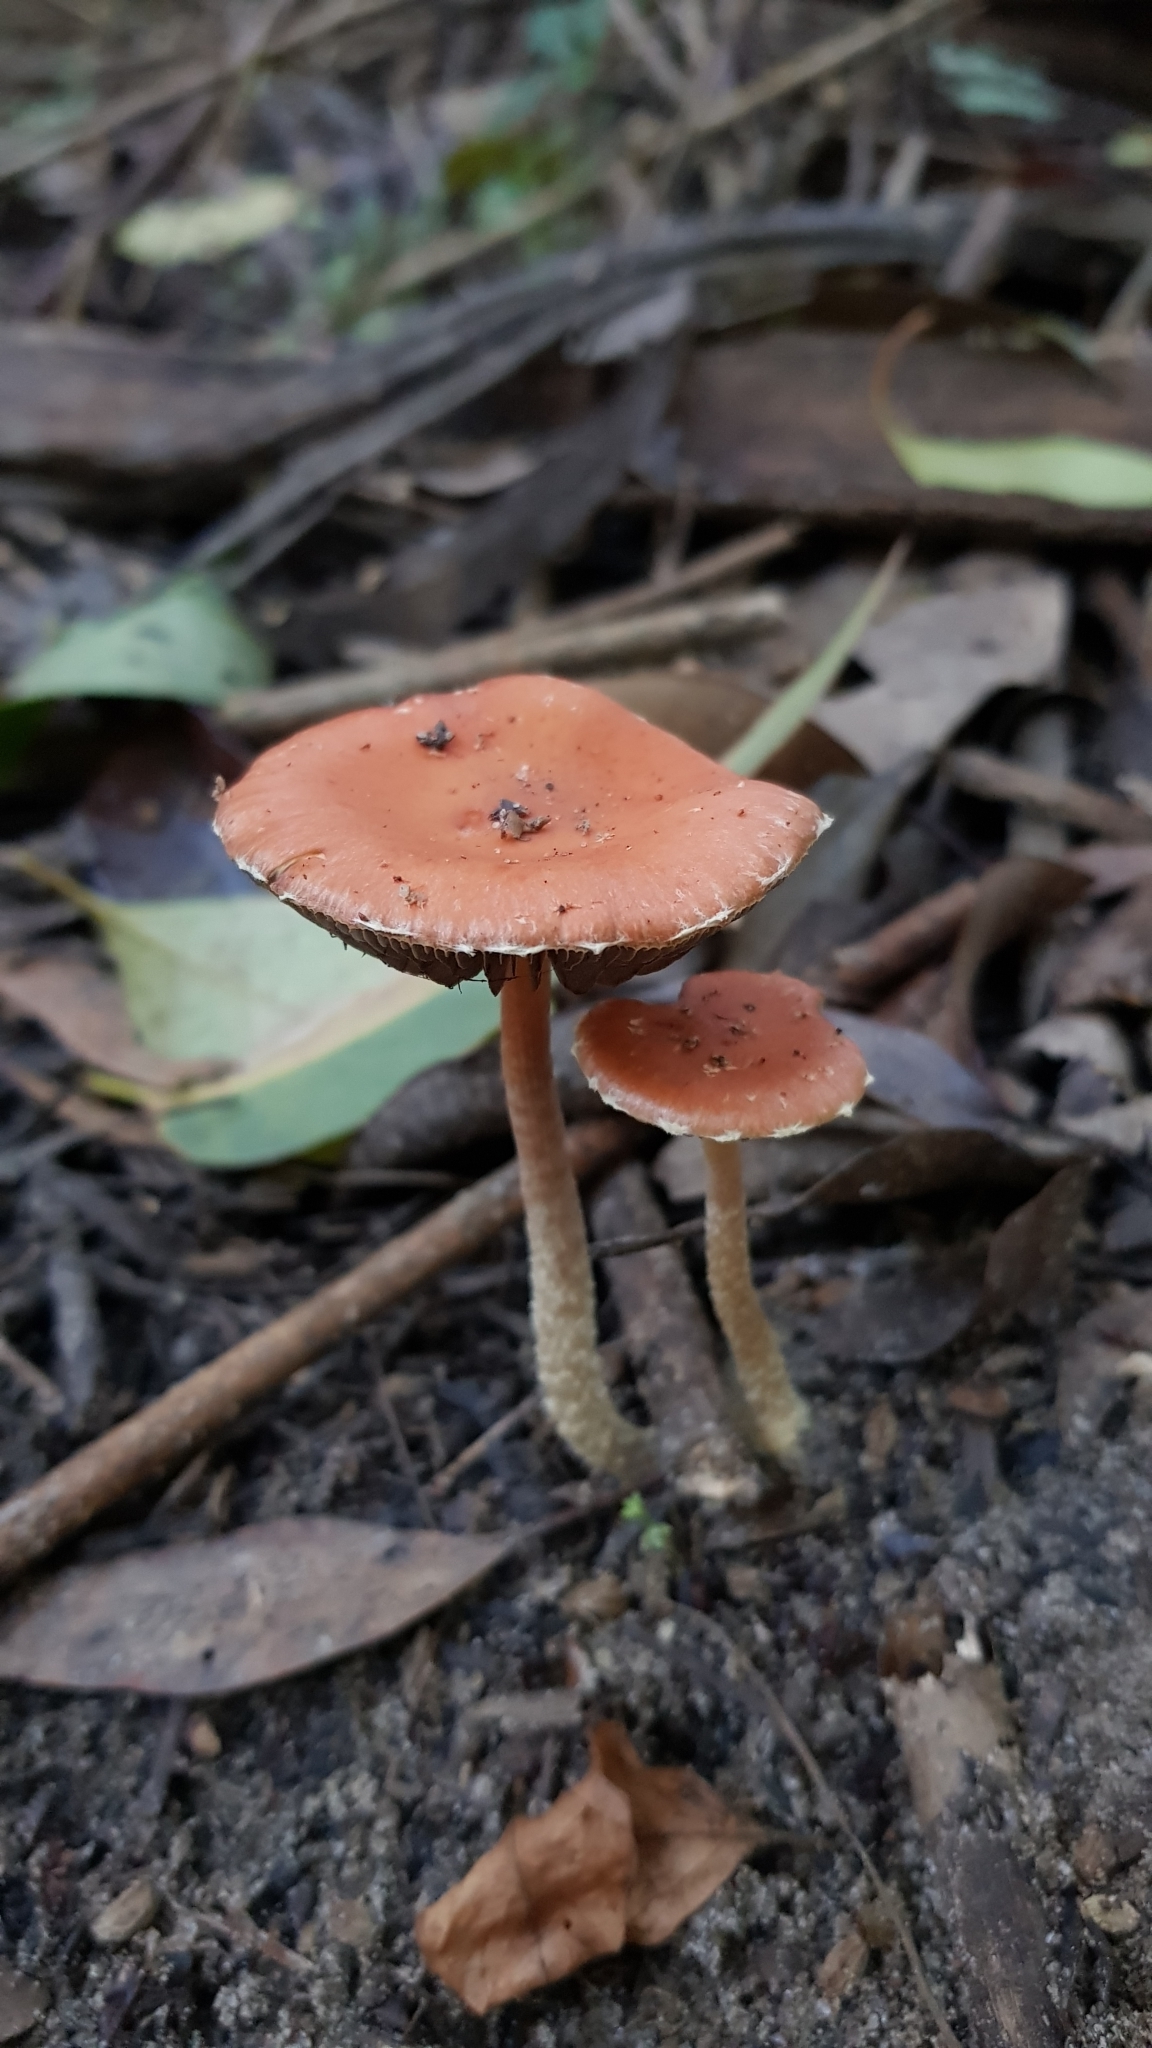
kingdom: Fungi
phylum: Basidiomycota
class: Agaricomycetes
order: Agaricales
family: Strophariaceae
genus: Leratiomyces
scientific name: Leratiomyces ceres
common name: Redlead roundhead
